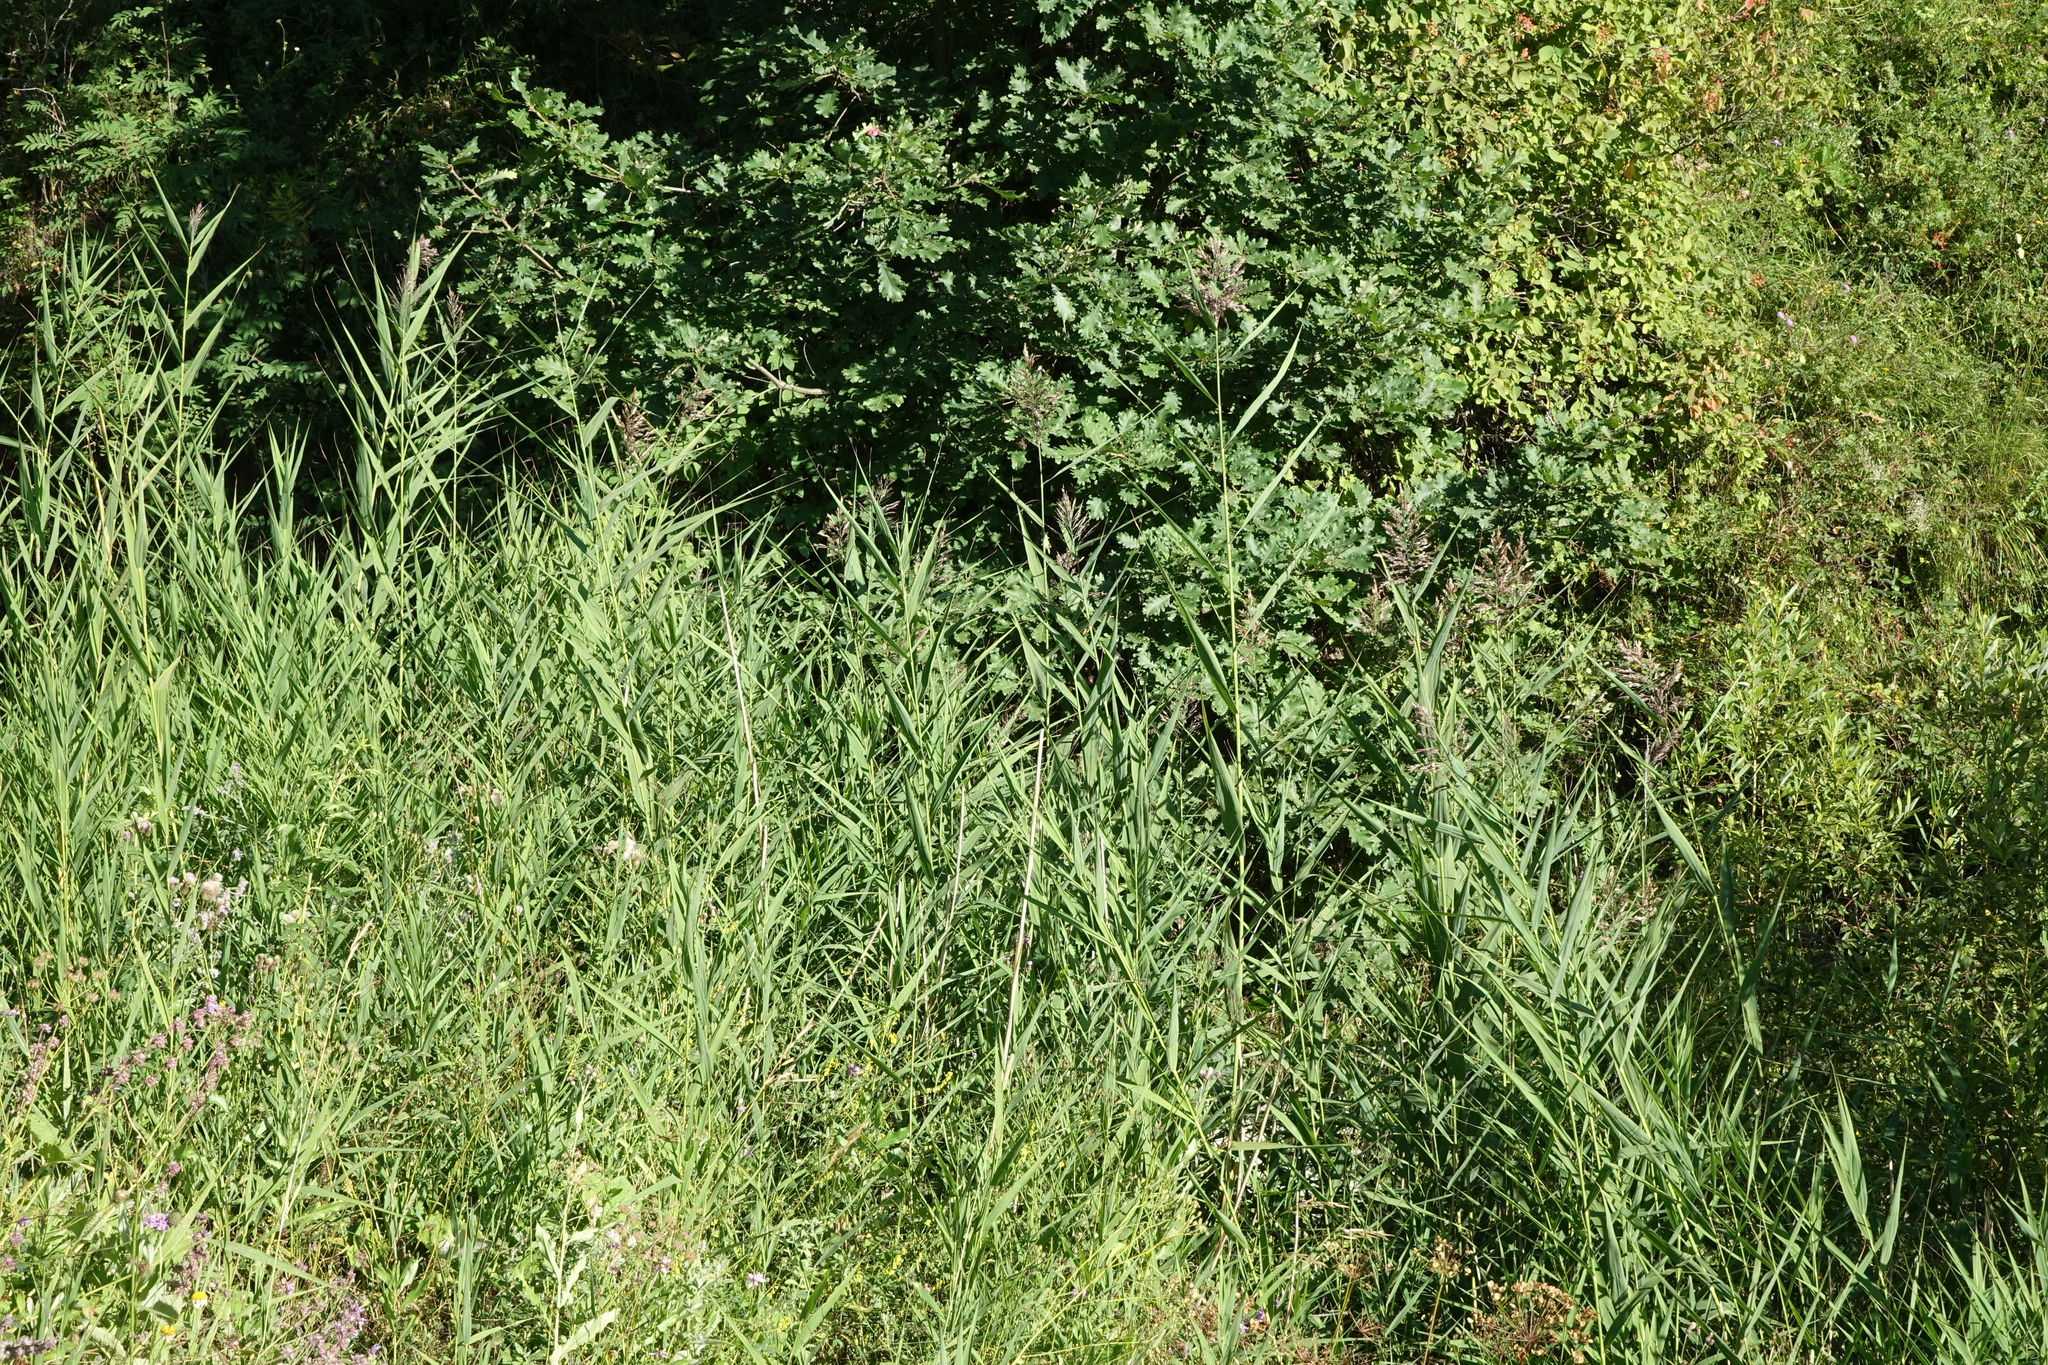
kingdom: Plantae
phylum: Tracheophyta
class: Liliopsida
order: Poales
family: Poaceae
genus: Phragmites
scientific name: Phragmites australis
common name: Common reed
